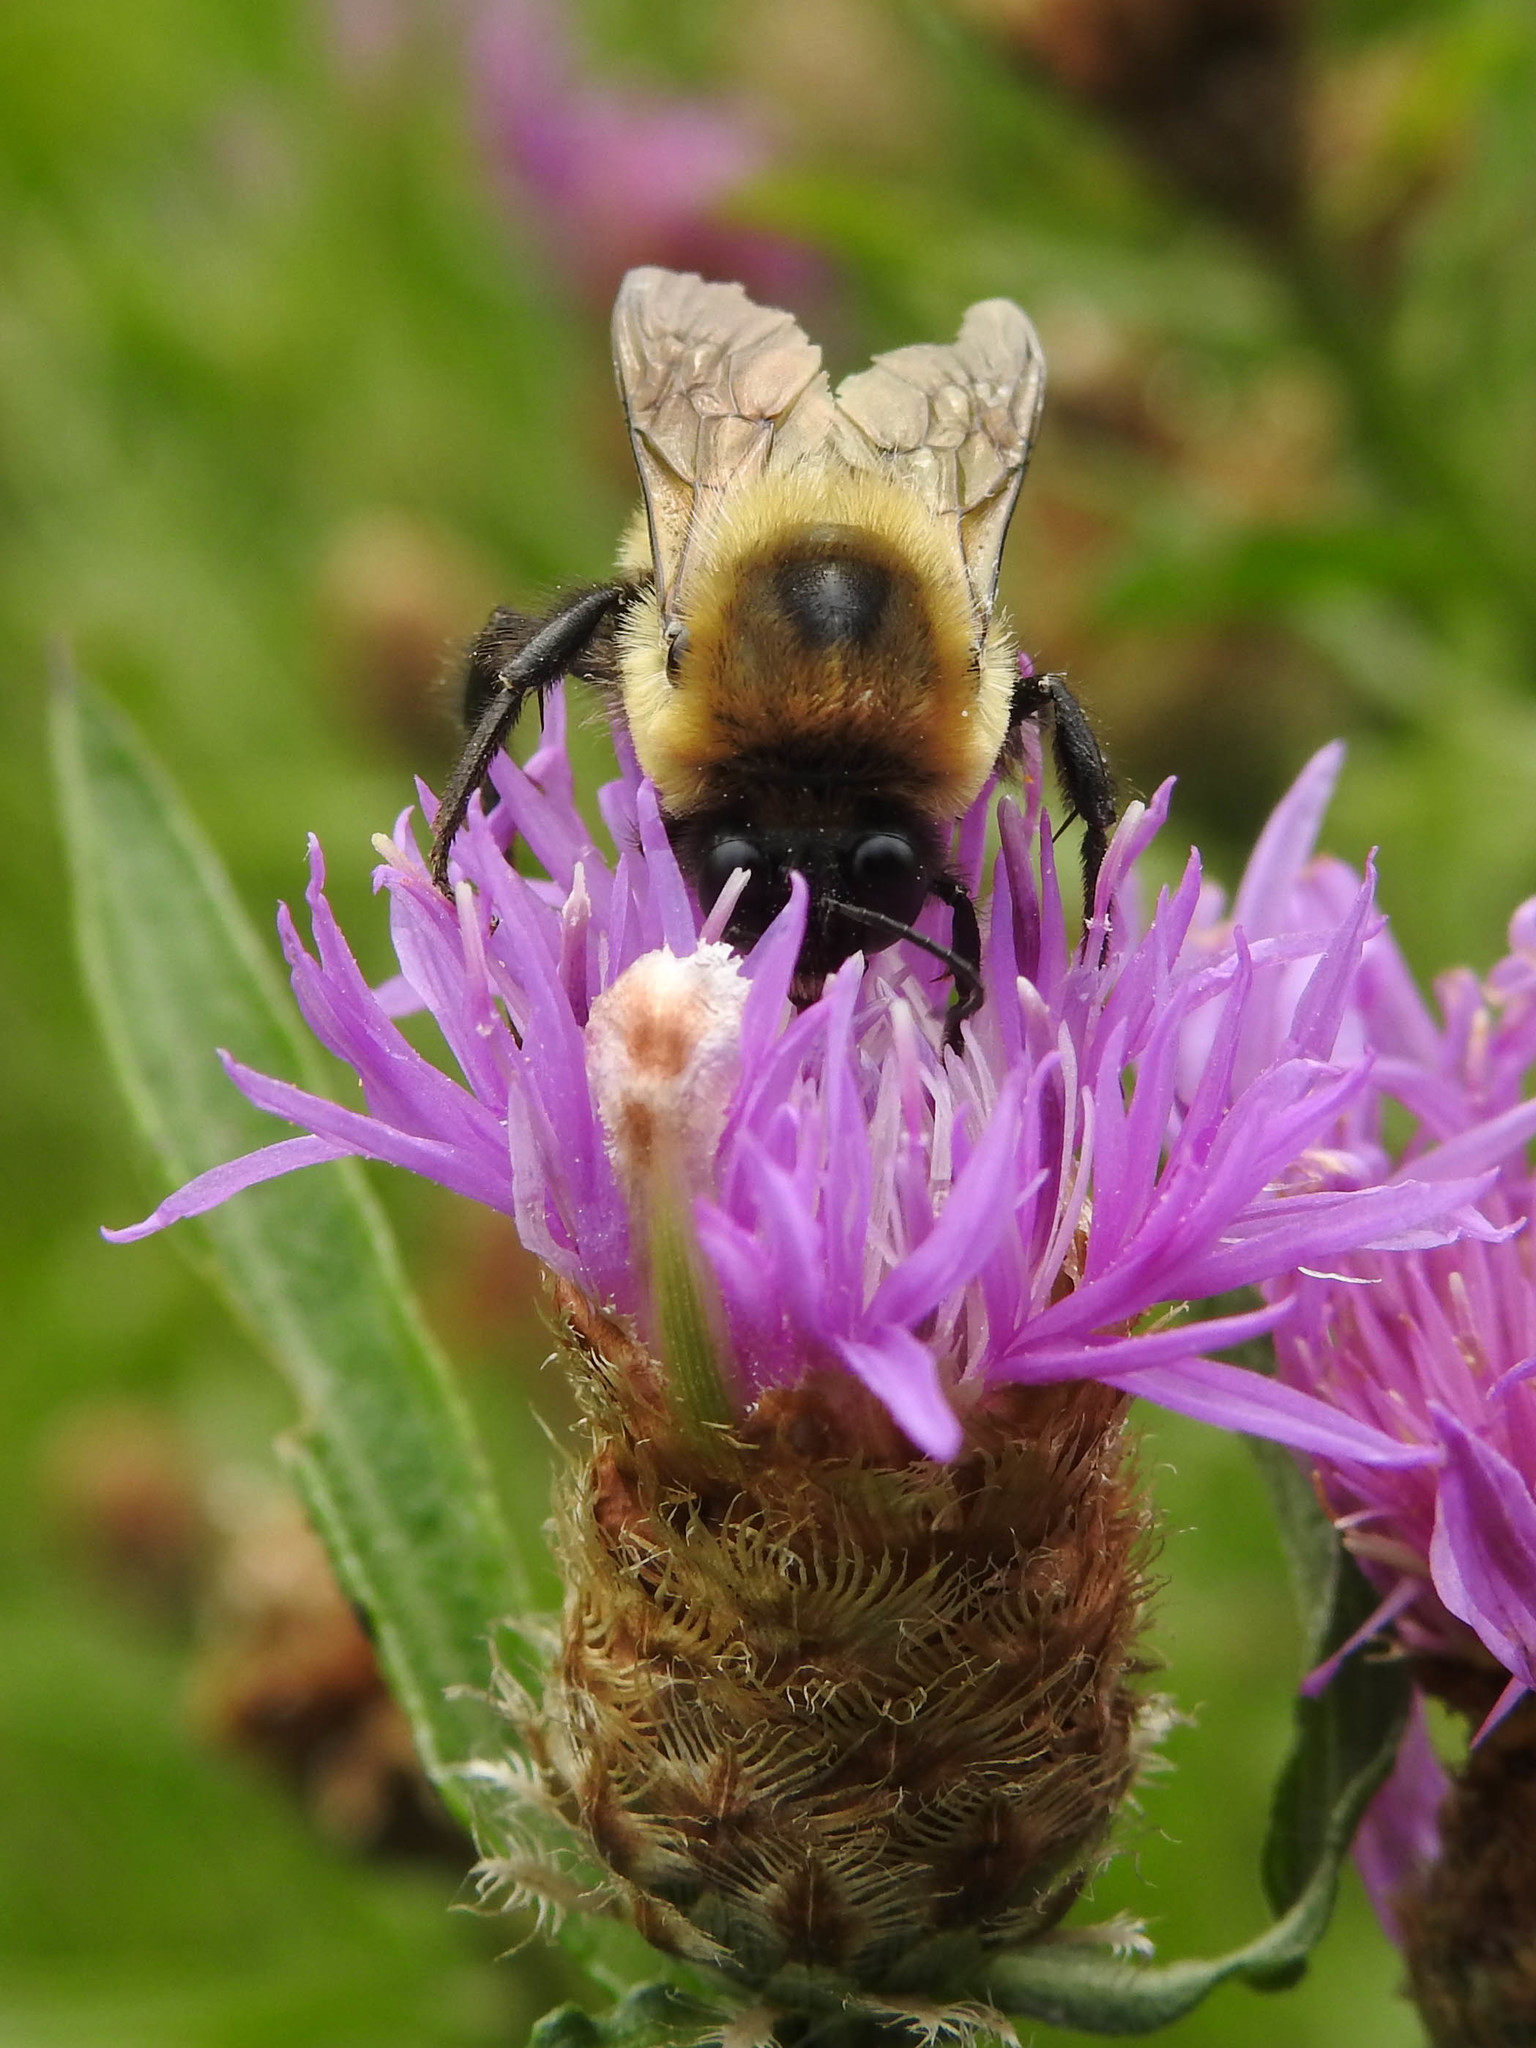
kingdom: Animalia
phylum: Arthropoda
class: Insecta
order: Hymenoptera
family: Apidae
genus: Bombus
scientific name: Bombus griseocollis
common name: Brown-belted bumble bee
